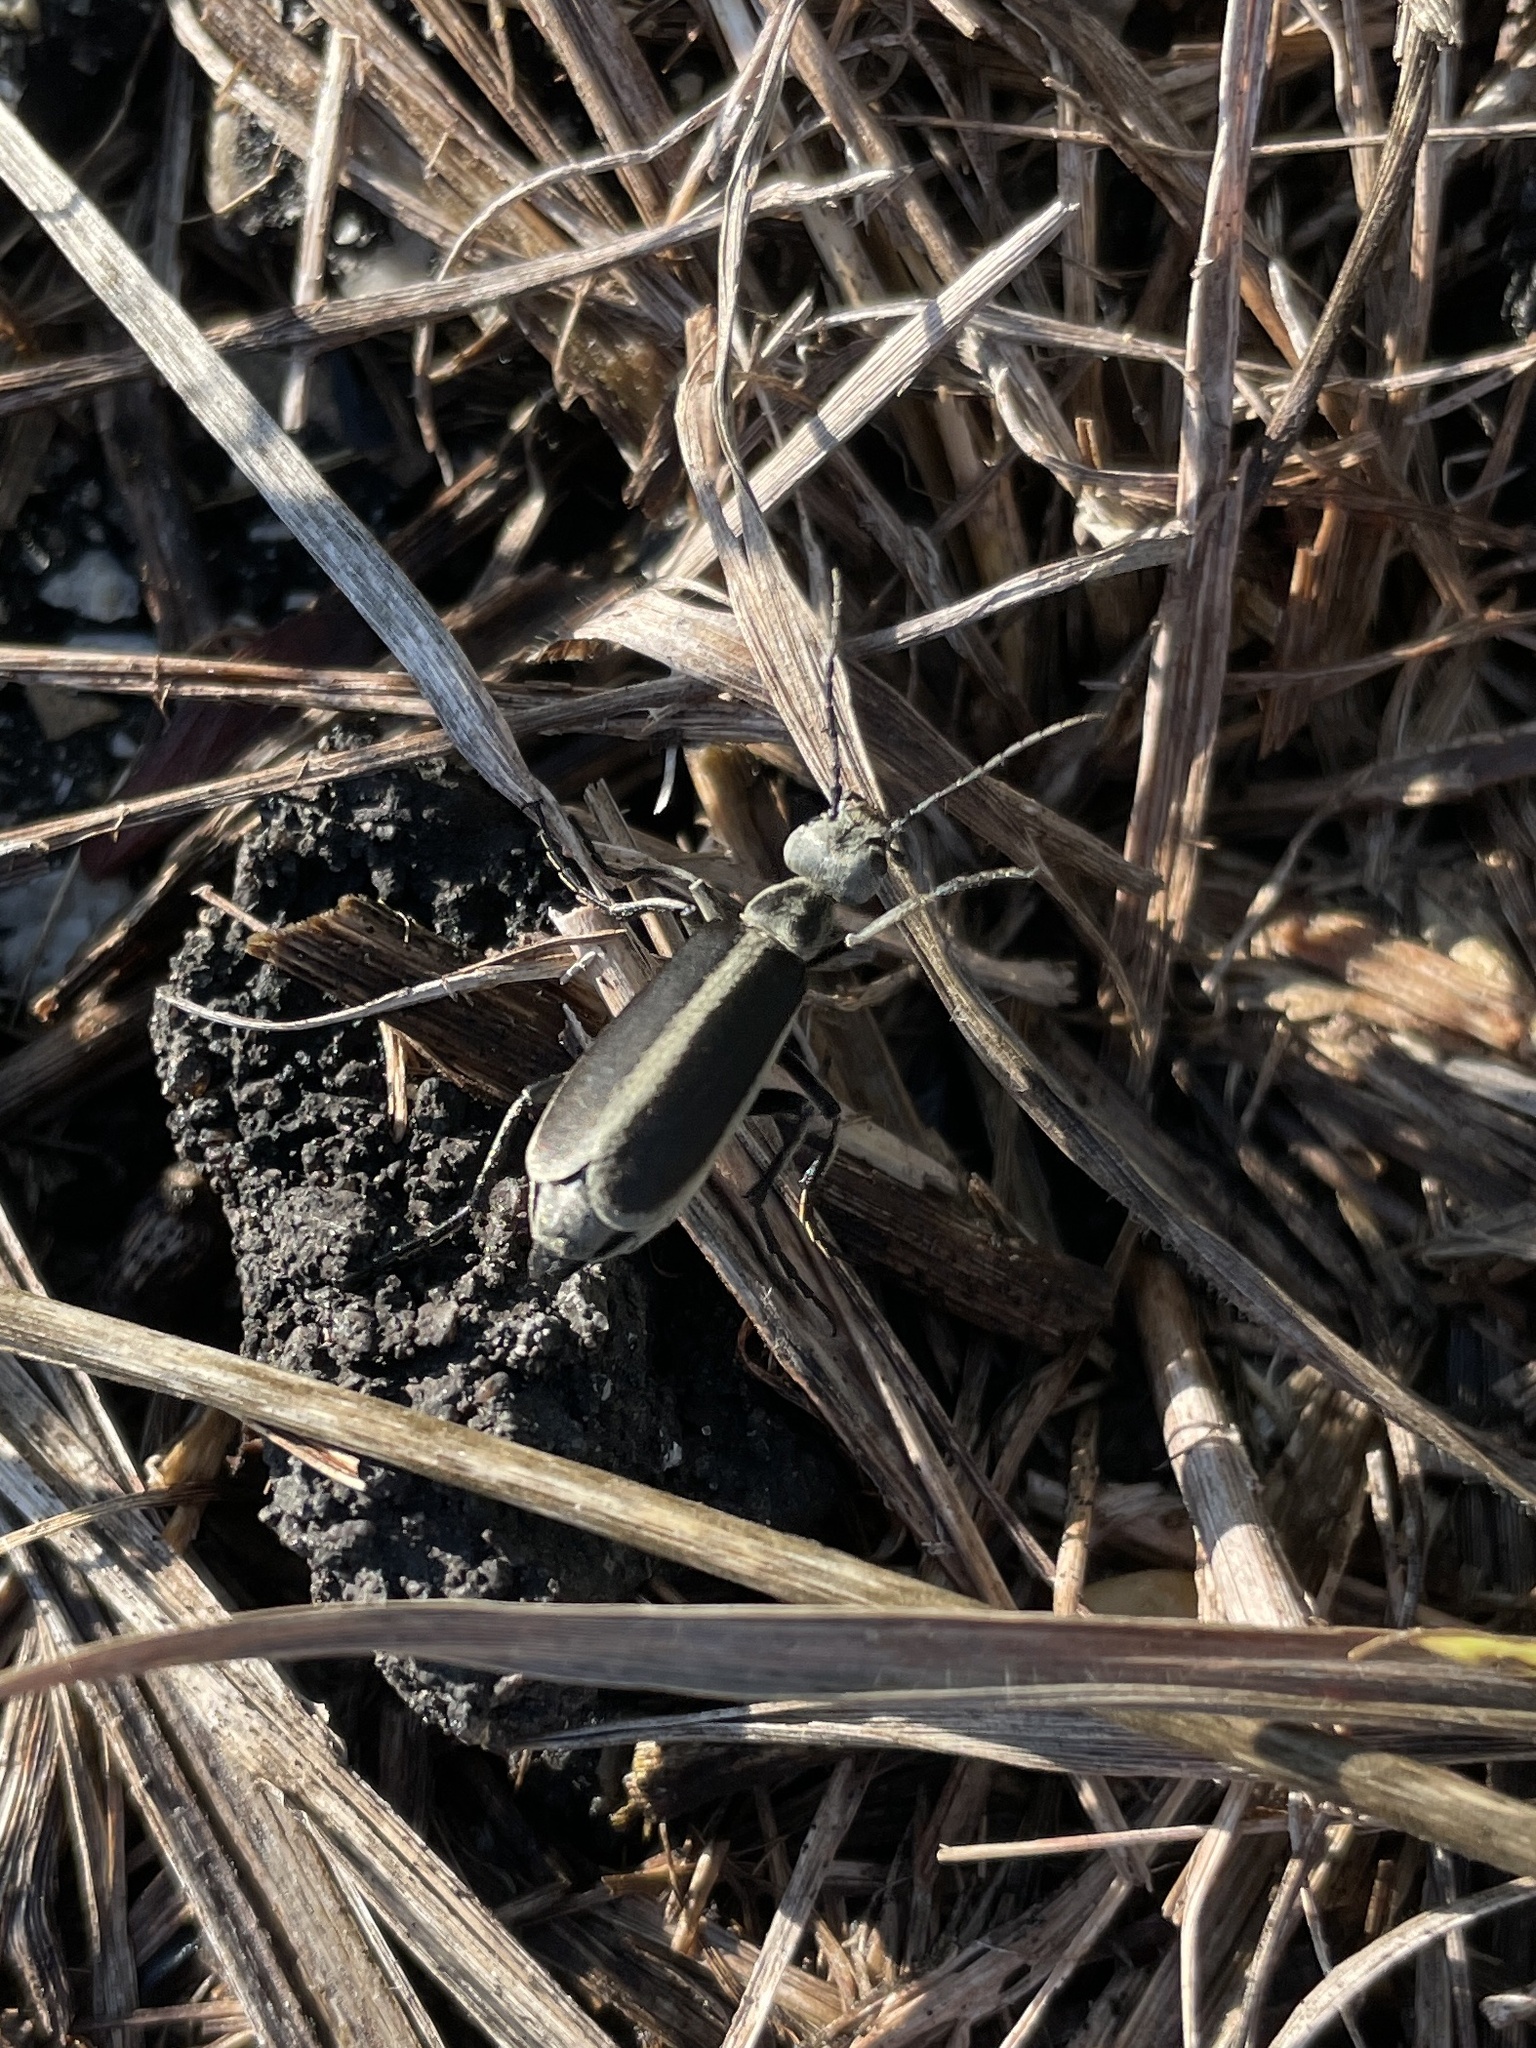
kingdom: Animalia
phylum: Arthropoda
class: Insecta
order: Coleoptera
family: Meloidae
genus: Epicauta
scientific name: Epicauta funebris
